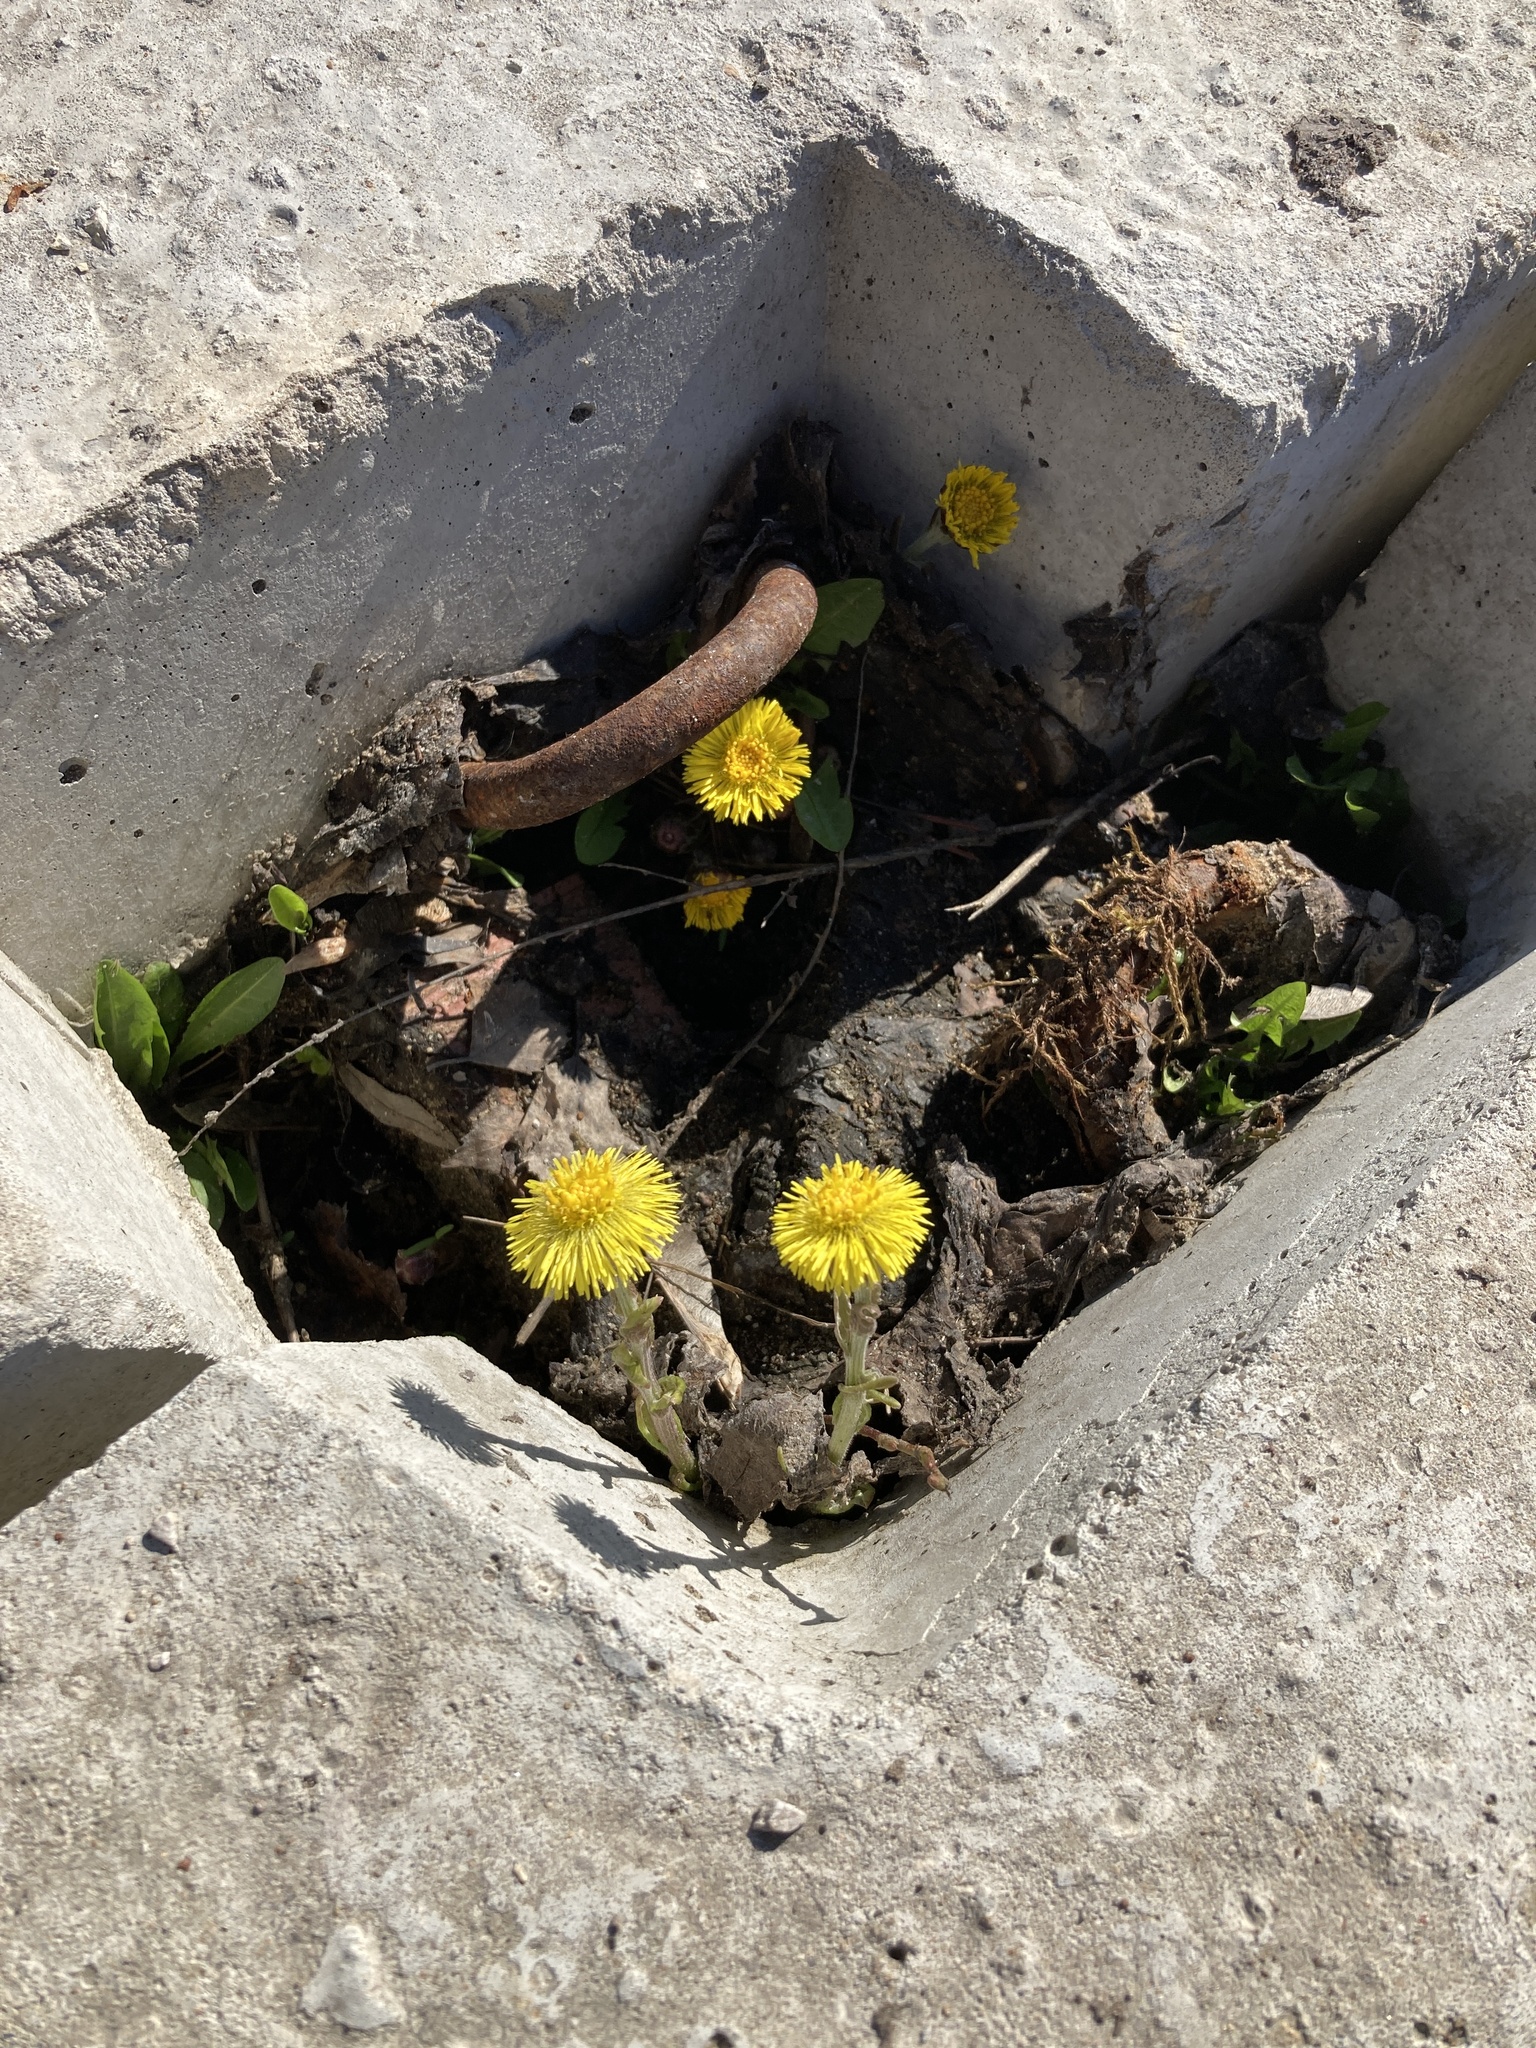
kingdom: Plantae
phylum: Tracheophyta
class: Magnoliopsida
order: Asterales
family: Asteraceae
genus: Tussilago
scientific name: Tussilago farfara
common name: Coltsfoot
